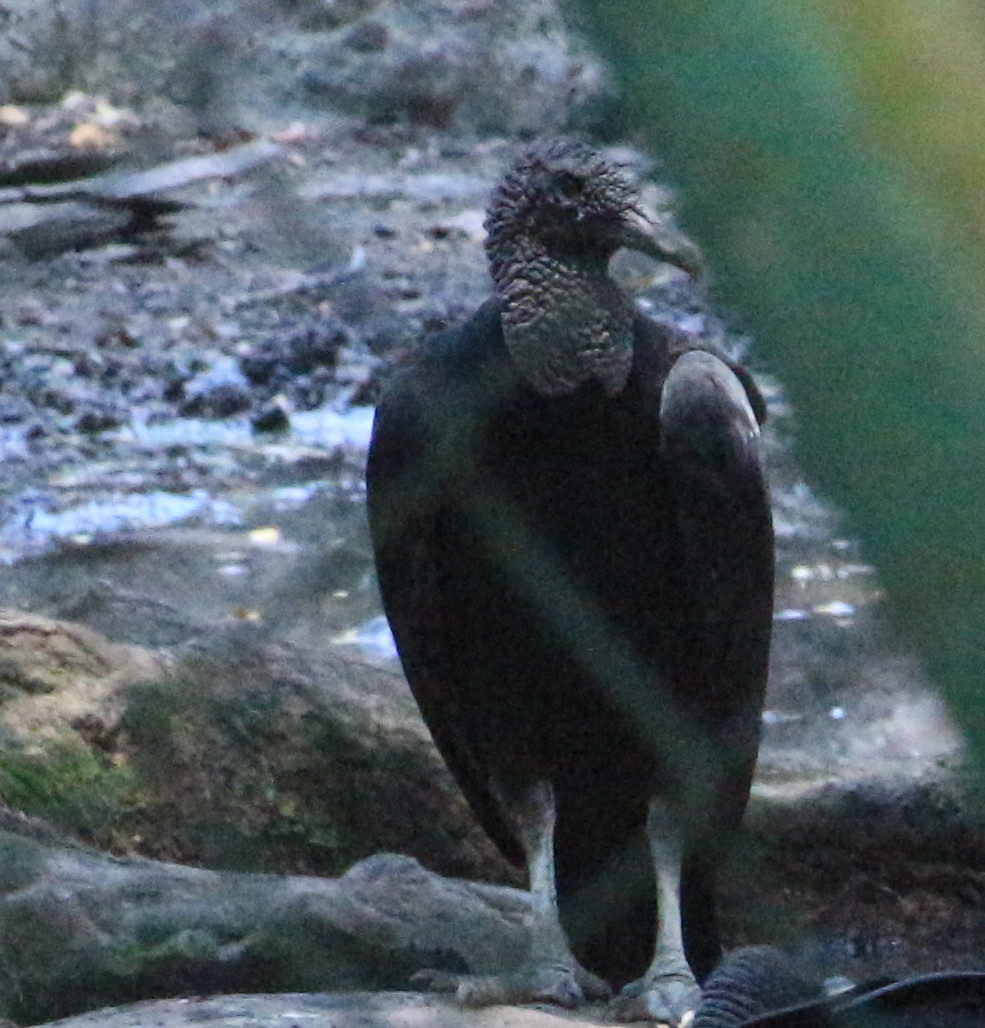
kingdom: Animalia
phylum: Chordata
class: Aves
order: Accipitriformes
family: Cathartidae
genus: Coragyps
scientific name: Coragyps atratus
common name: Black vulture
